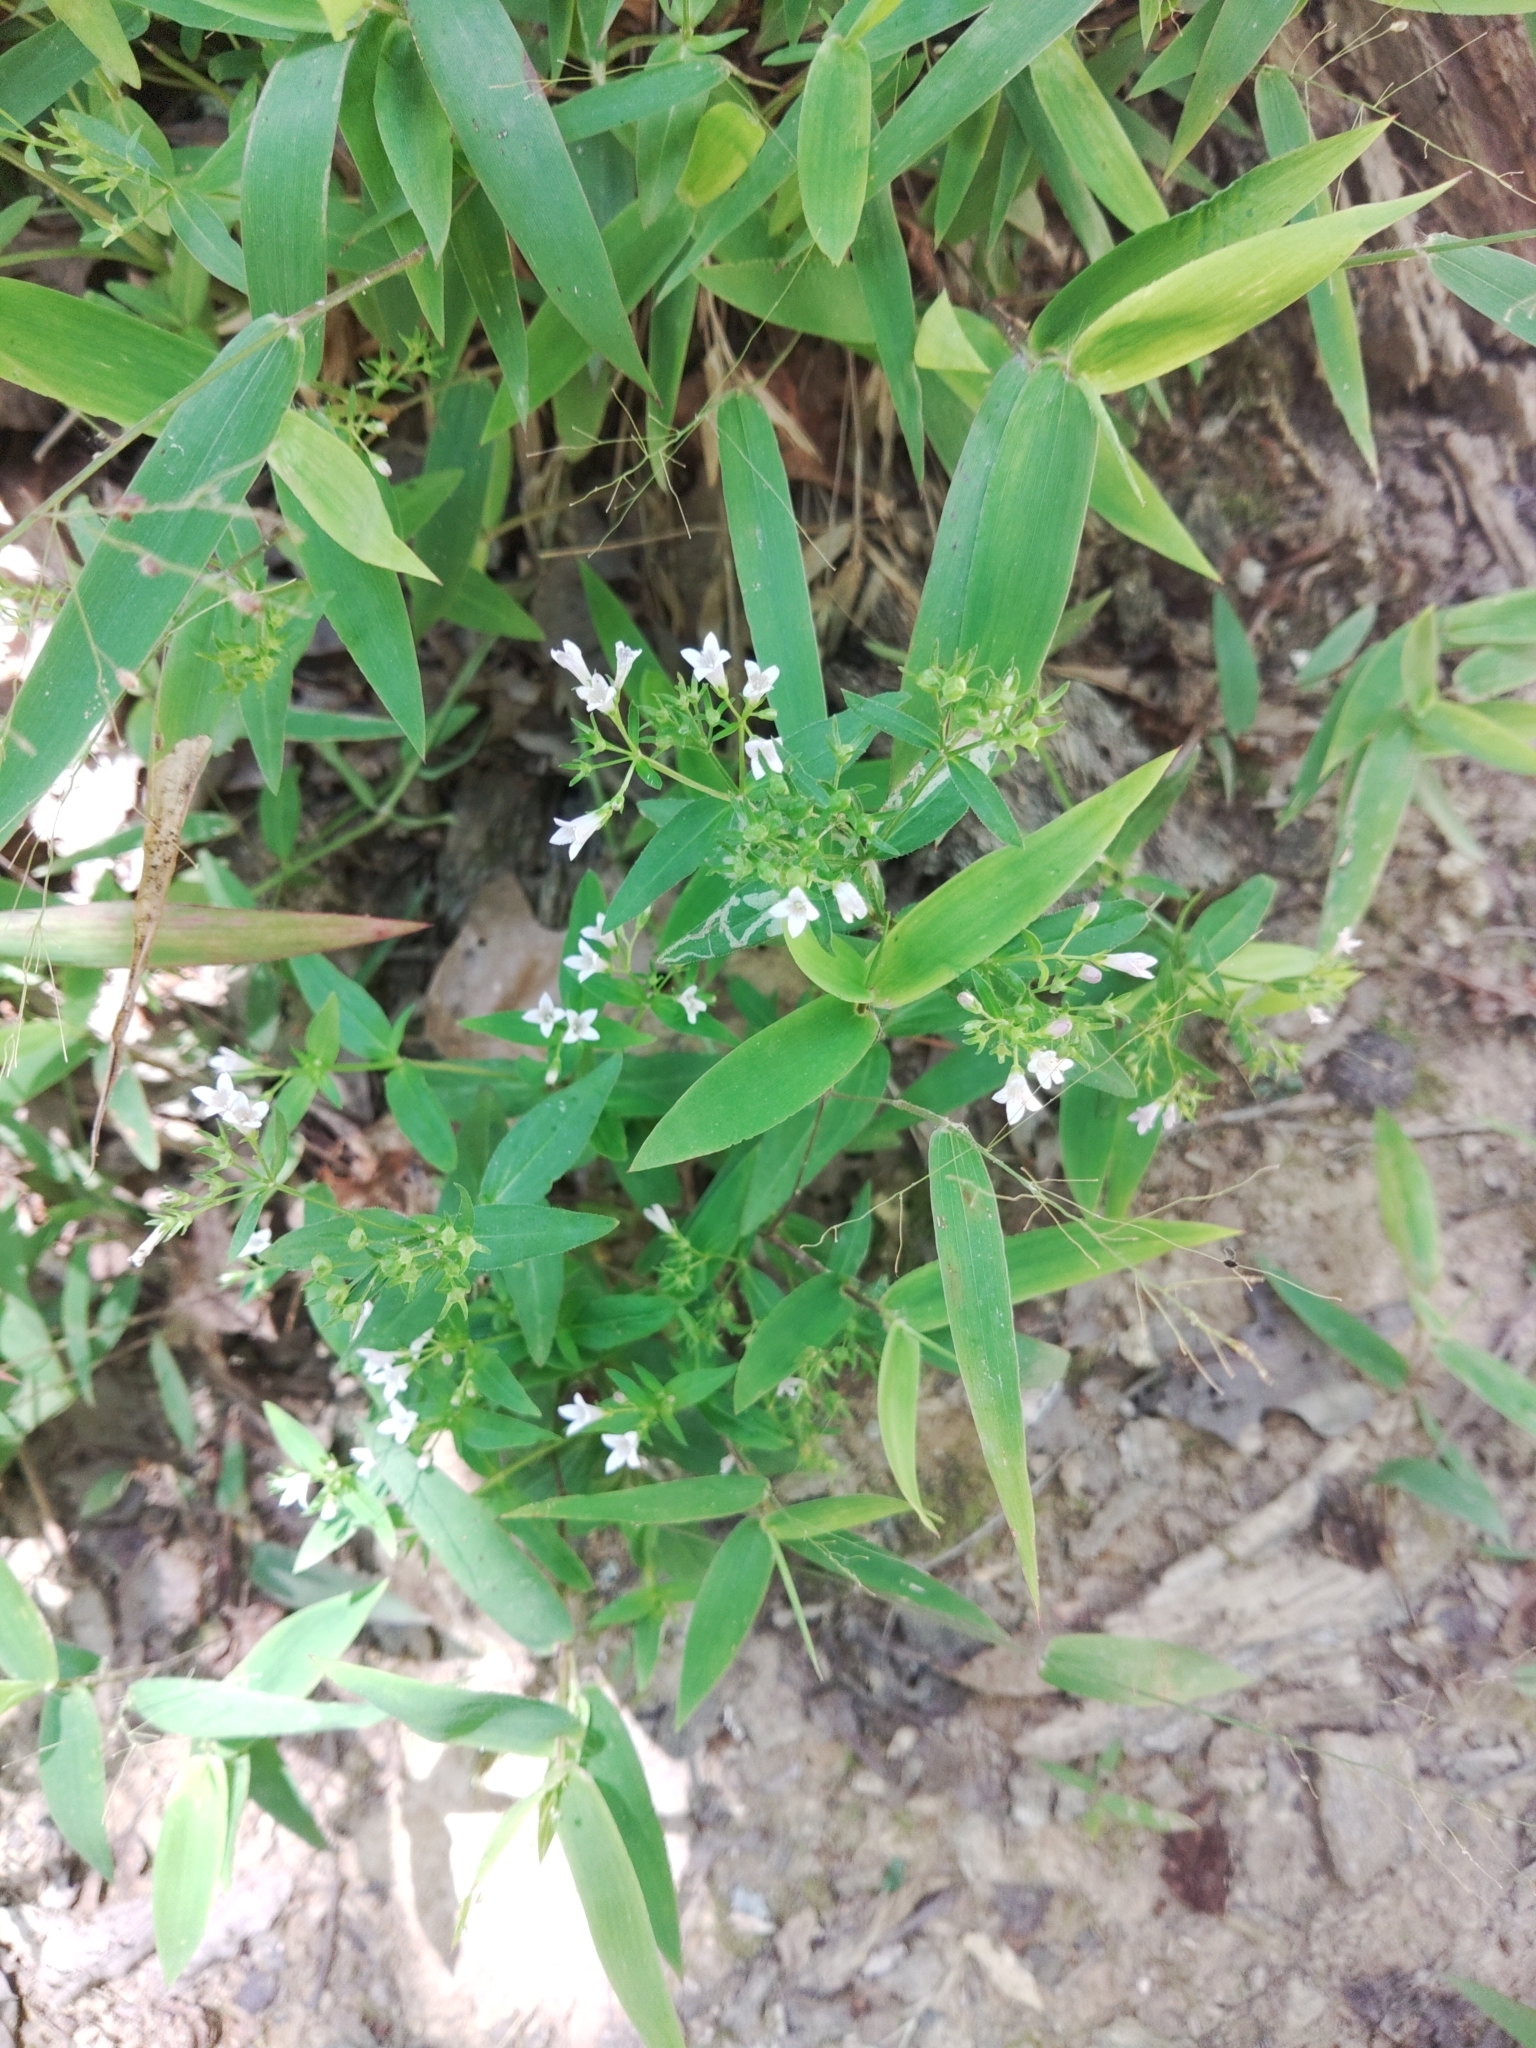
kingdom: Plantae
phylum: Tracheophyta
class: Magnoliopsida
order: Gentianales
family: Rubiaceae
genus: Houstonia
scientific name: Houstonia purpurea
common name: Summer bluet
